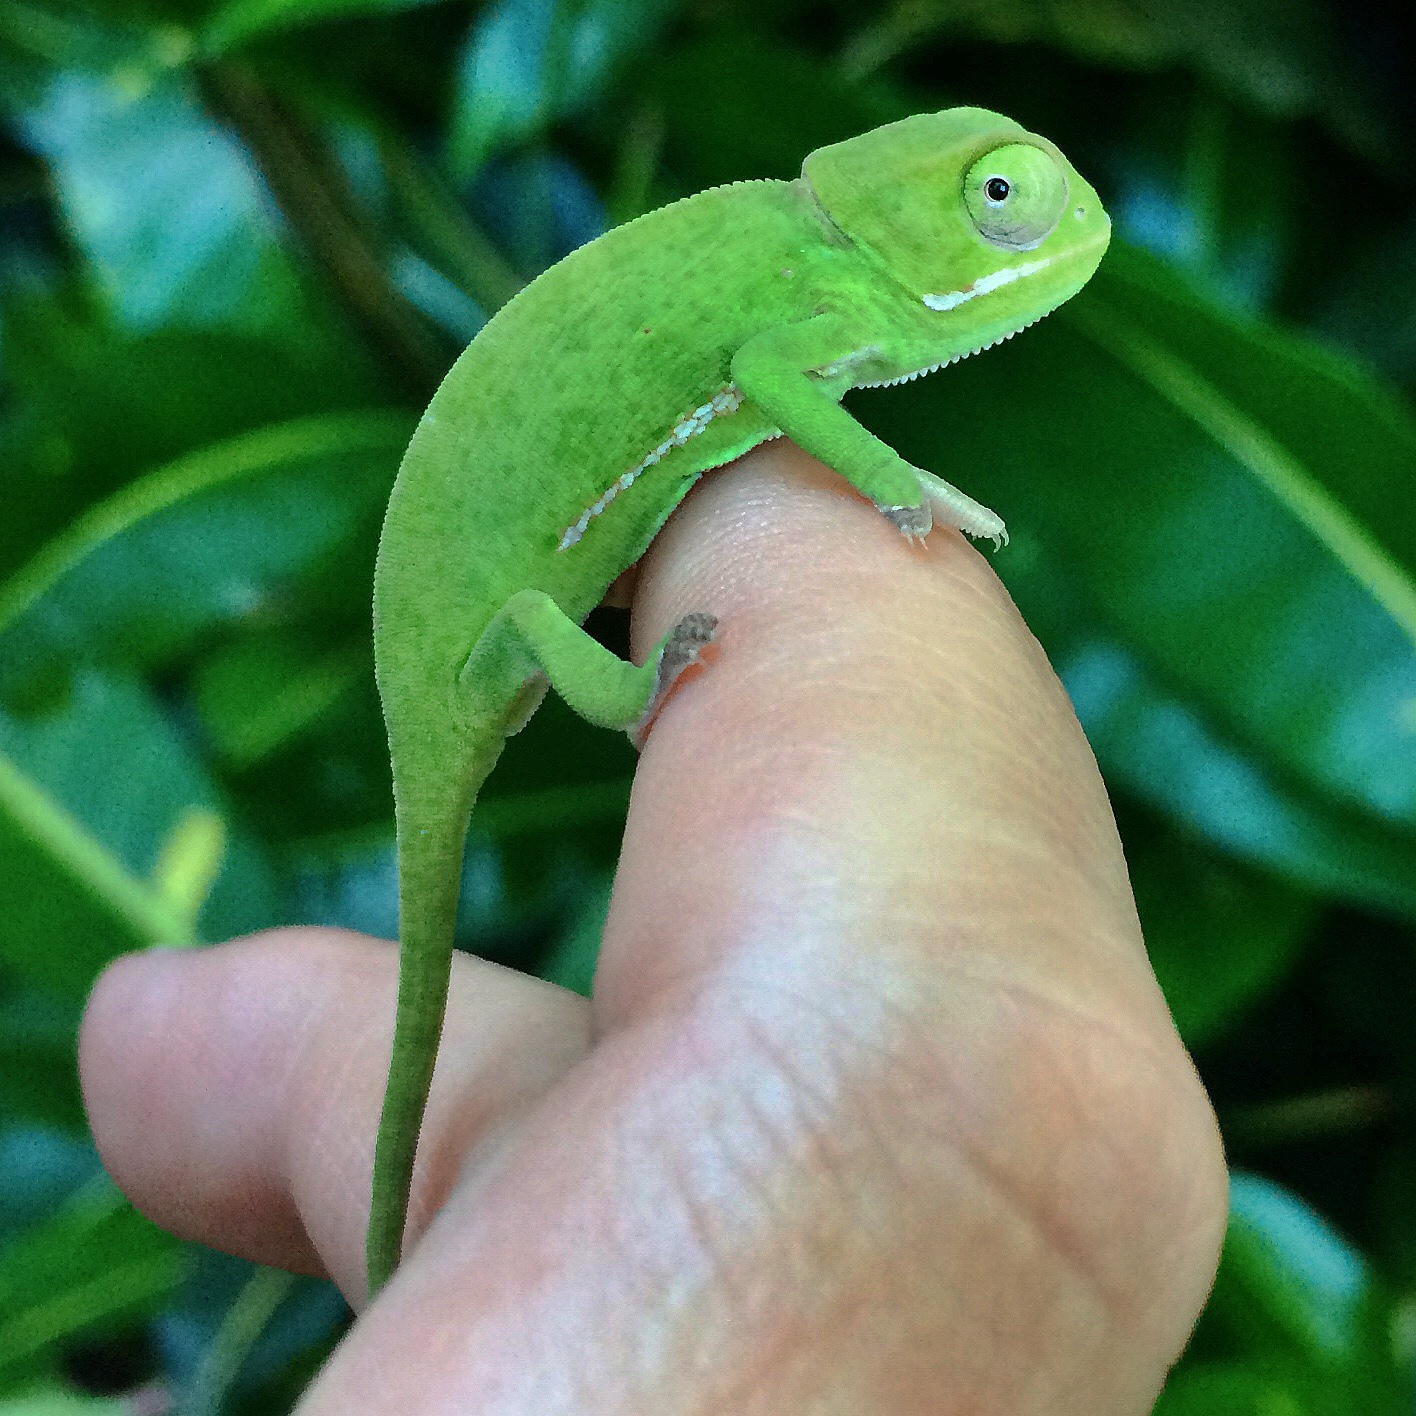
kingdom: Animalia
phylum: Chordata
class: Squamata
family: Chamaeleonidae
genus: Chamaeleo
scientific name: Chamaeleo dilepis
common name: Flapneck chameleon
